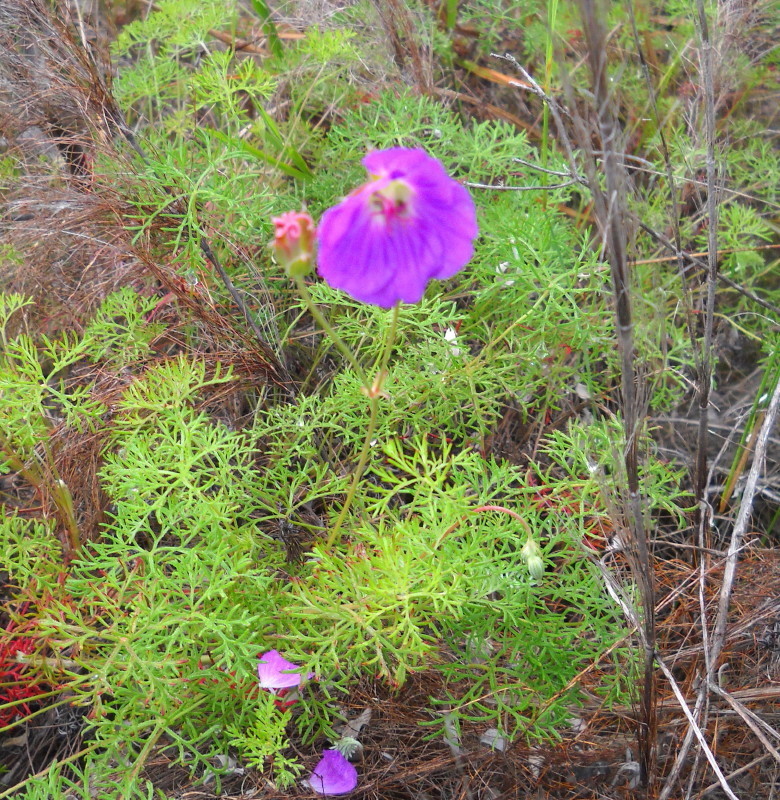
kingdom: Plantae
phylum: Tracheophyta
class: Magnoliopsida
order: Geraniales
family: Geraniaceae
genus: Geranium
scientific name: Geranium incanum
